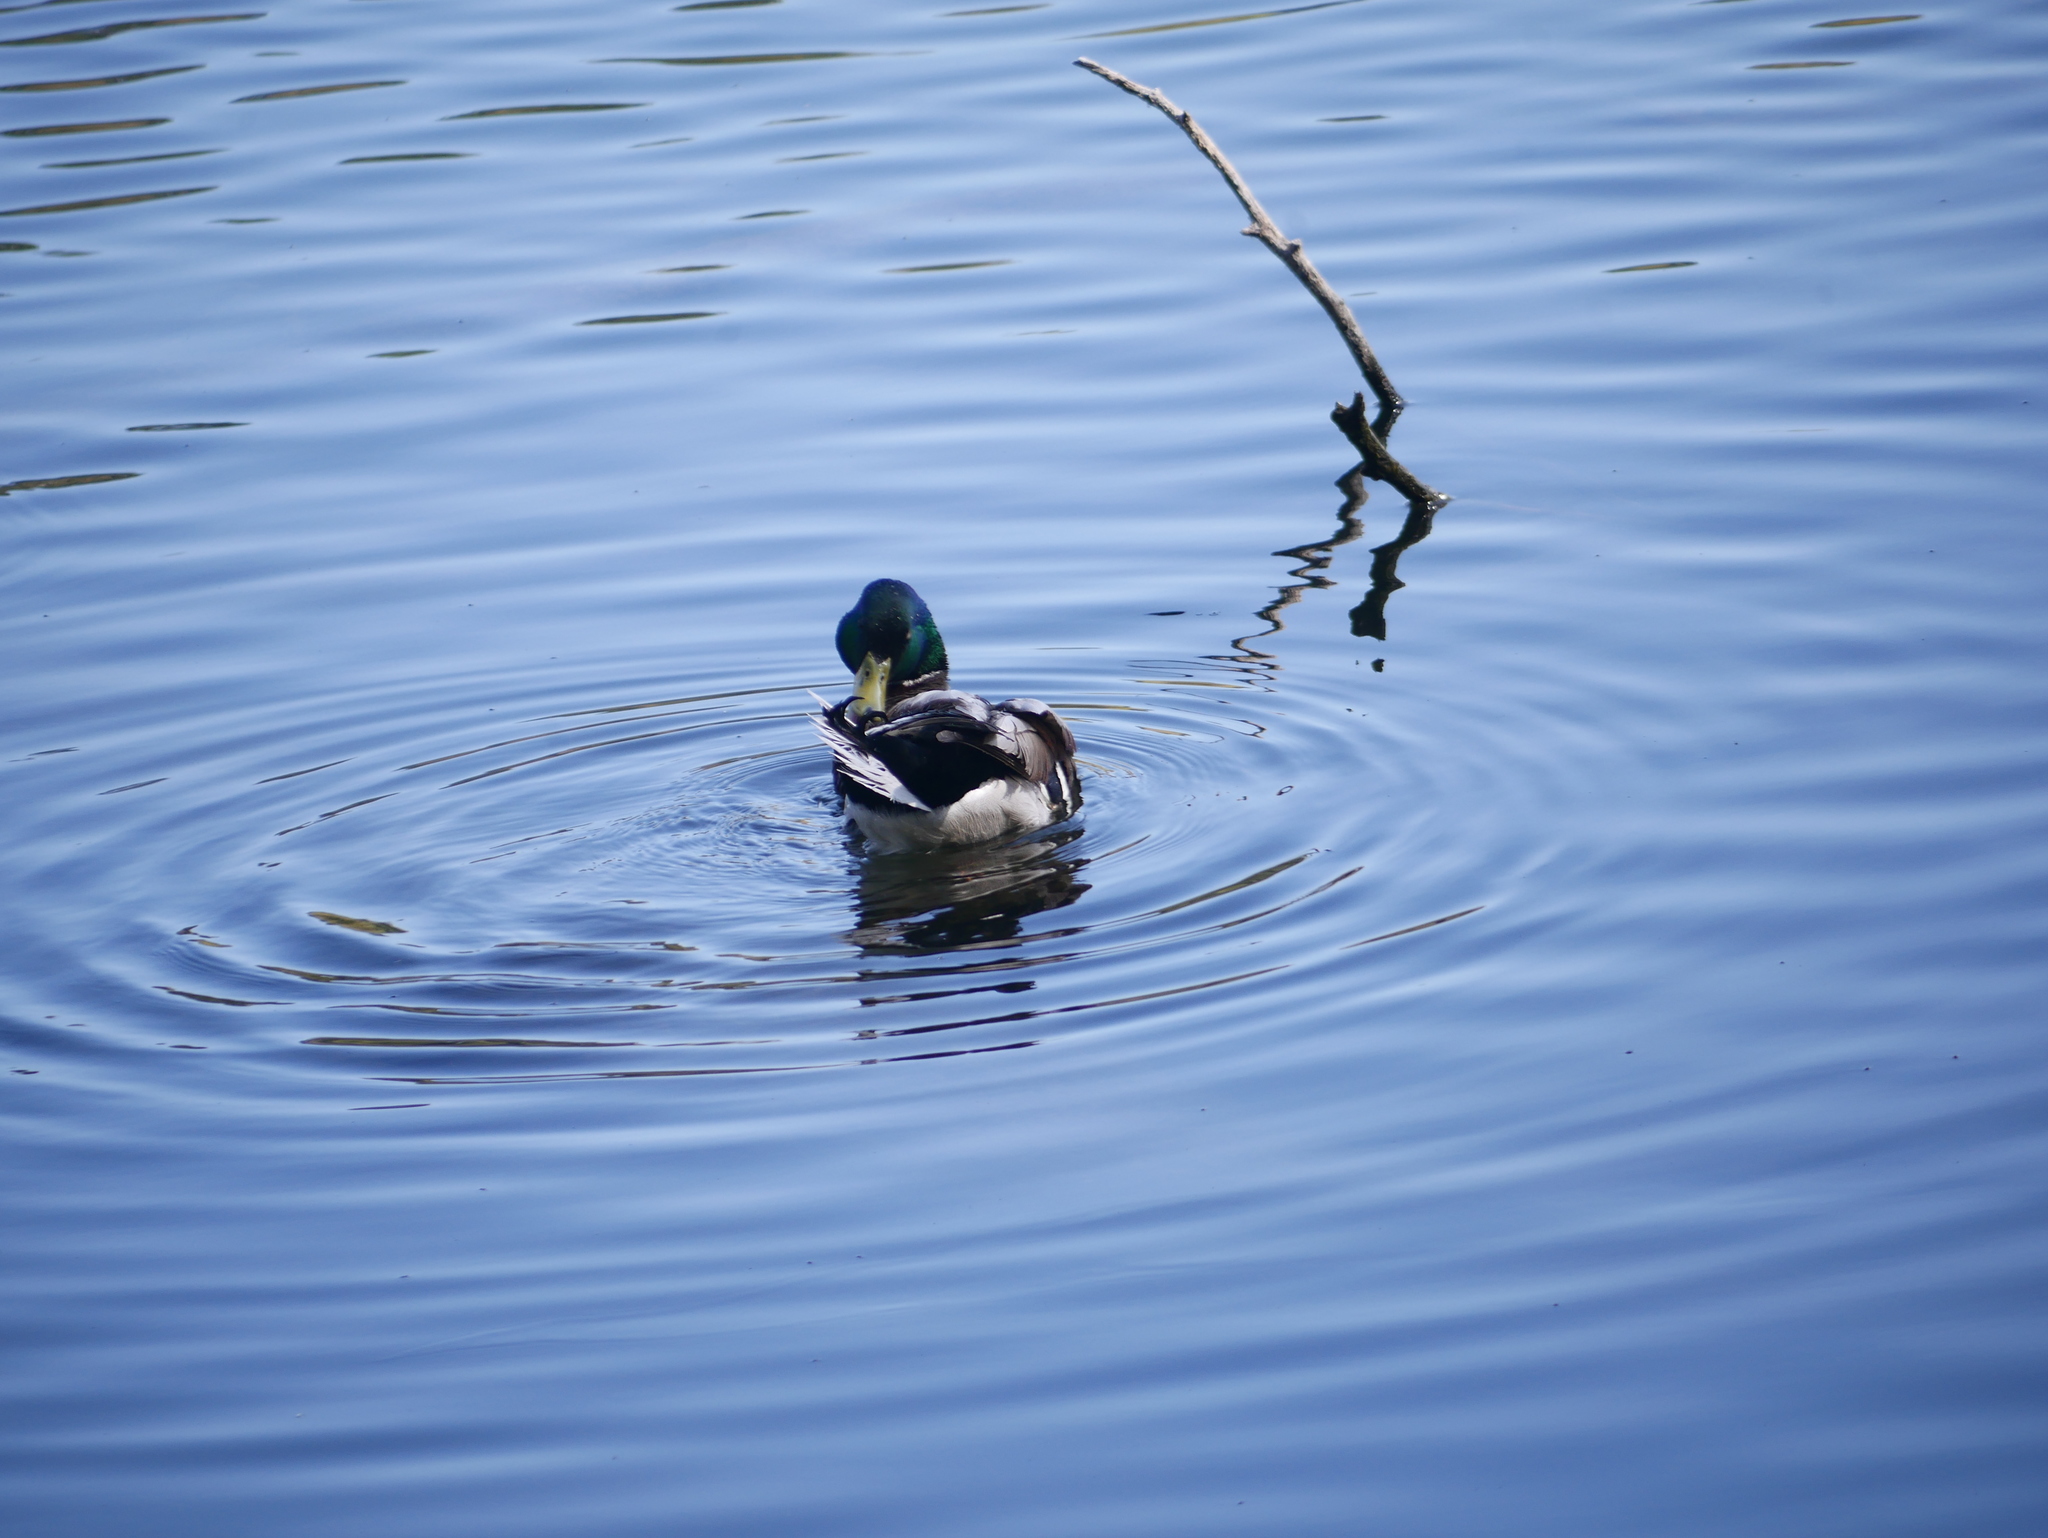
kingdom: Animalia
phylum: Chordata
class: Aves
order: Anseriformes
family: Anatidae
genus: Anas
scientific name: Anas platyrhynchos
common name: Mallard
